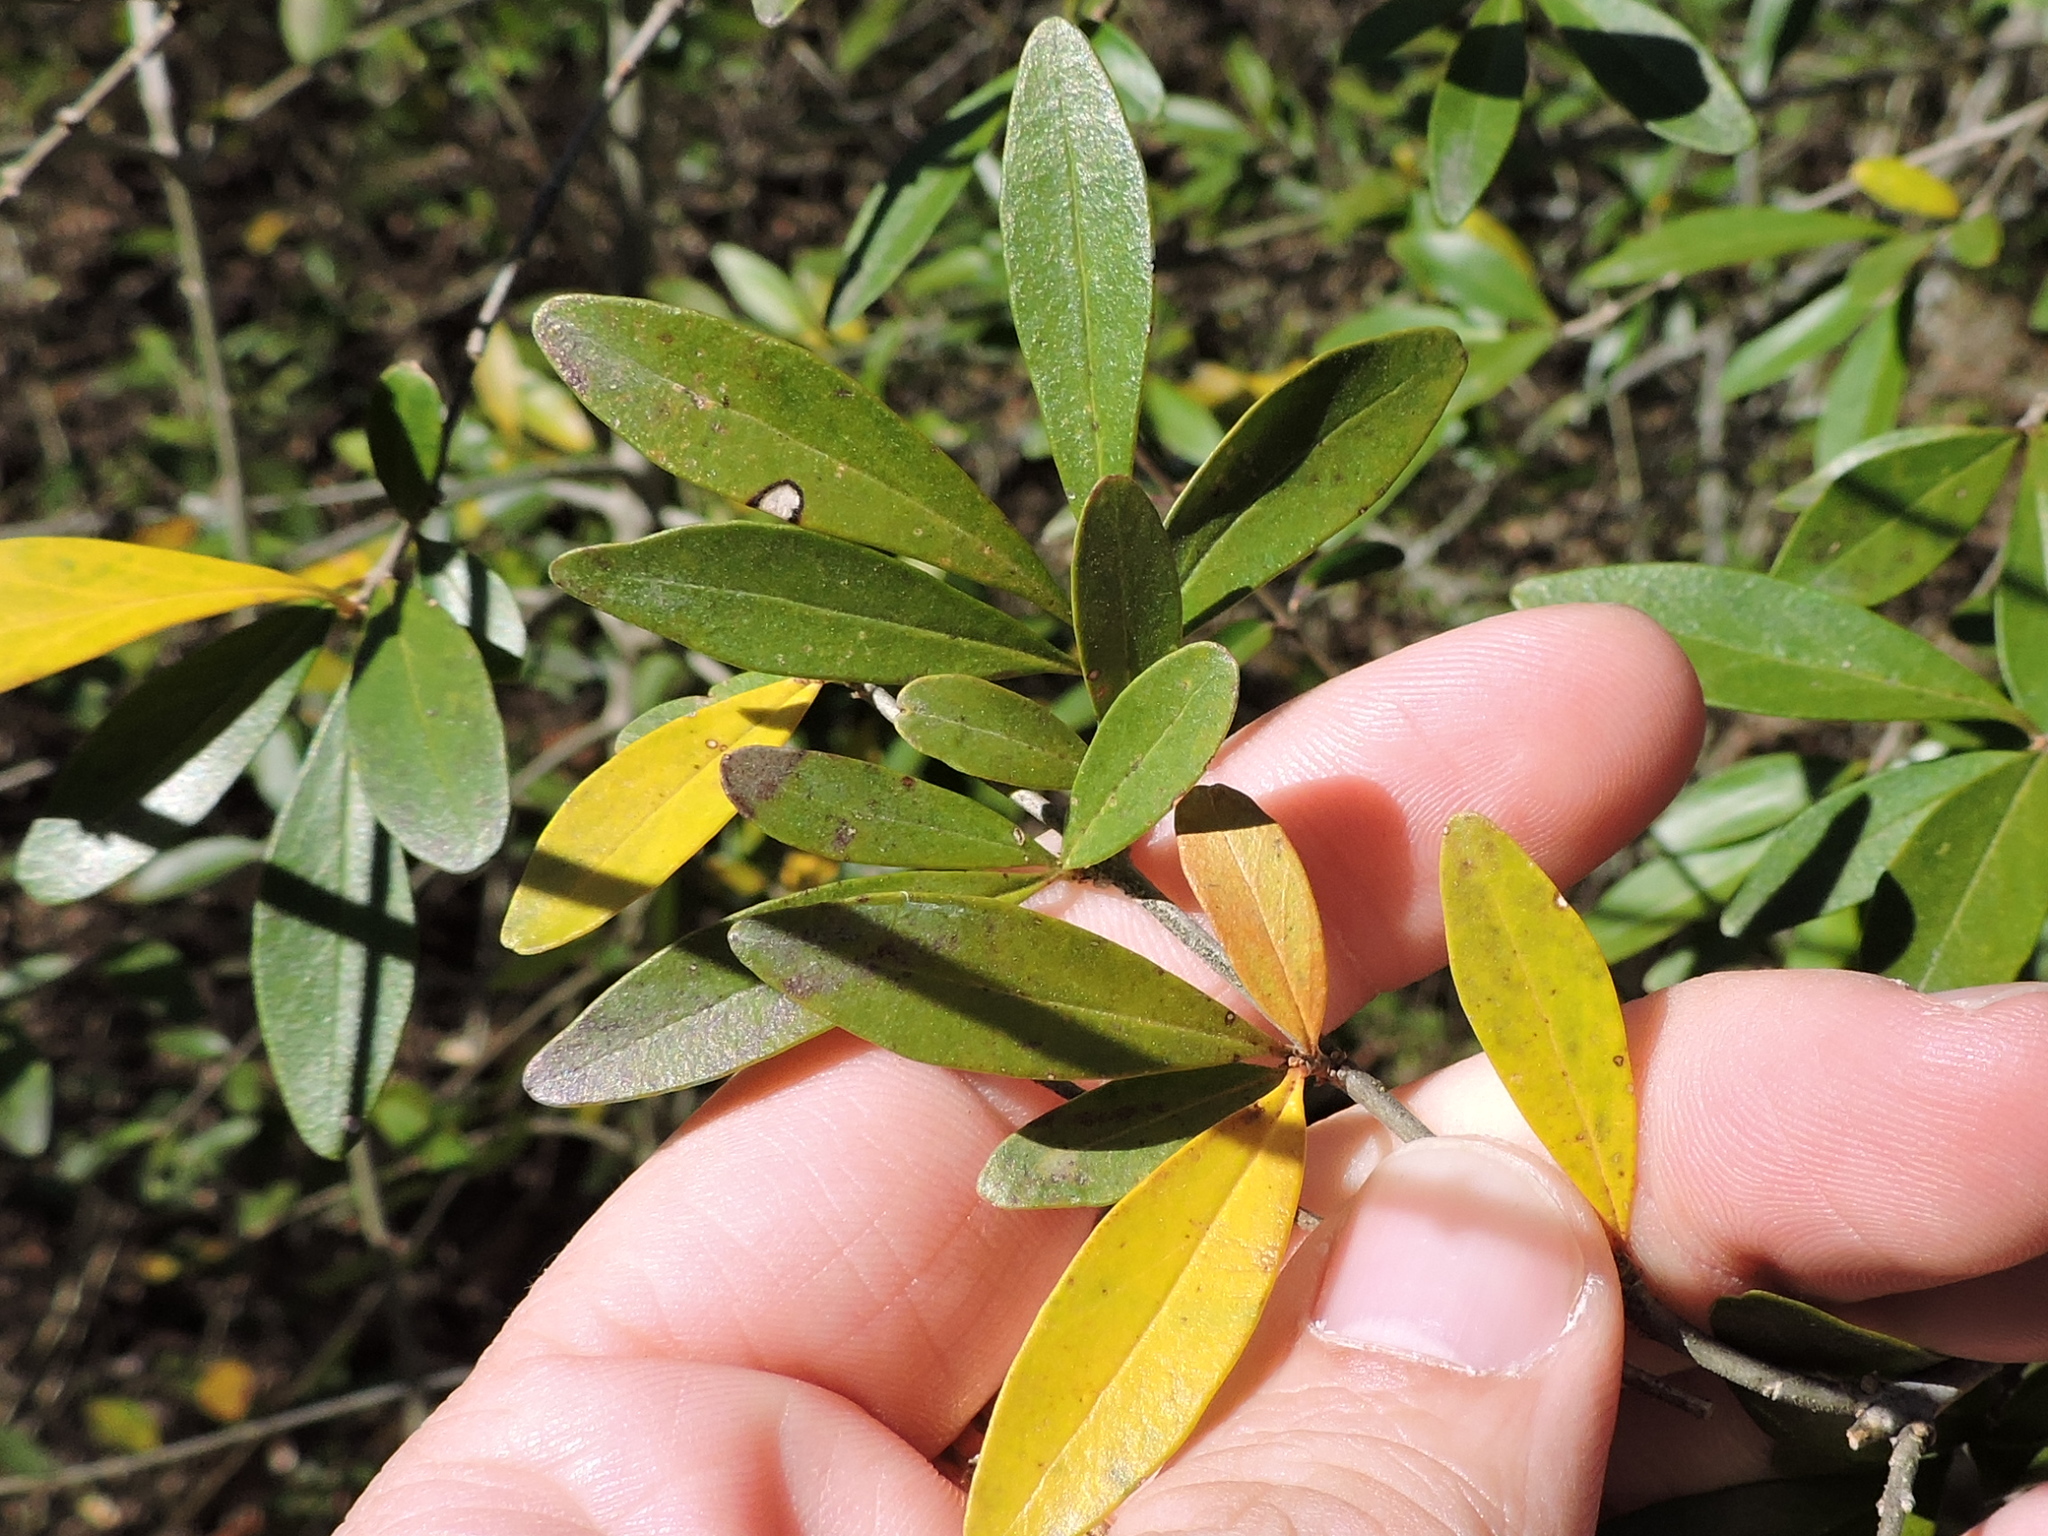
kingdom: Plantae
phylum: Tracheophyta
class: Magnoliopsida
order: Lamiales
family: Oleaceae
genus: Ligustrum
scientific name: Ligustrum quihoui
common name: Waxyleaf privet
